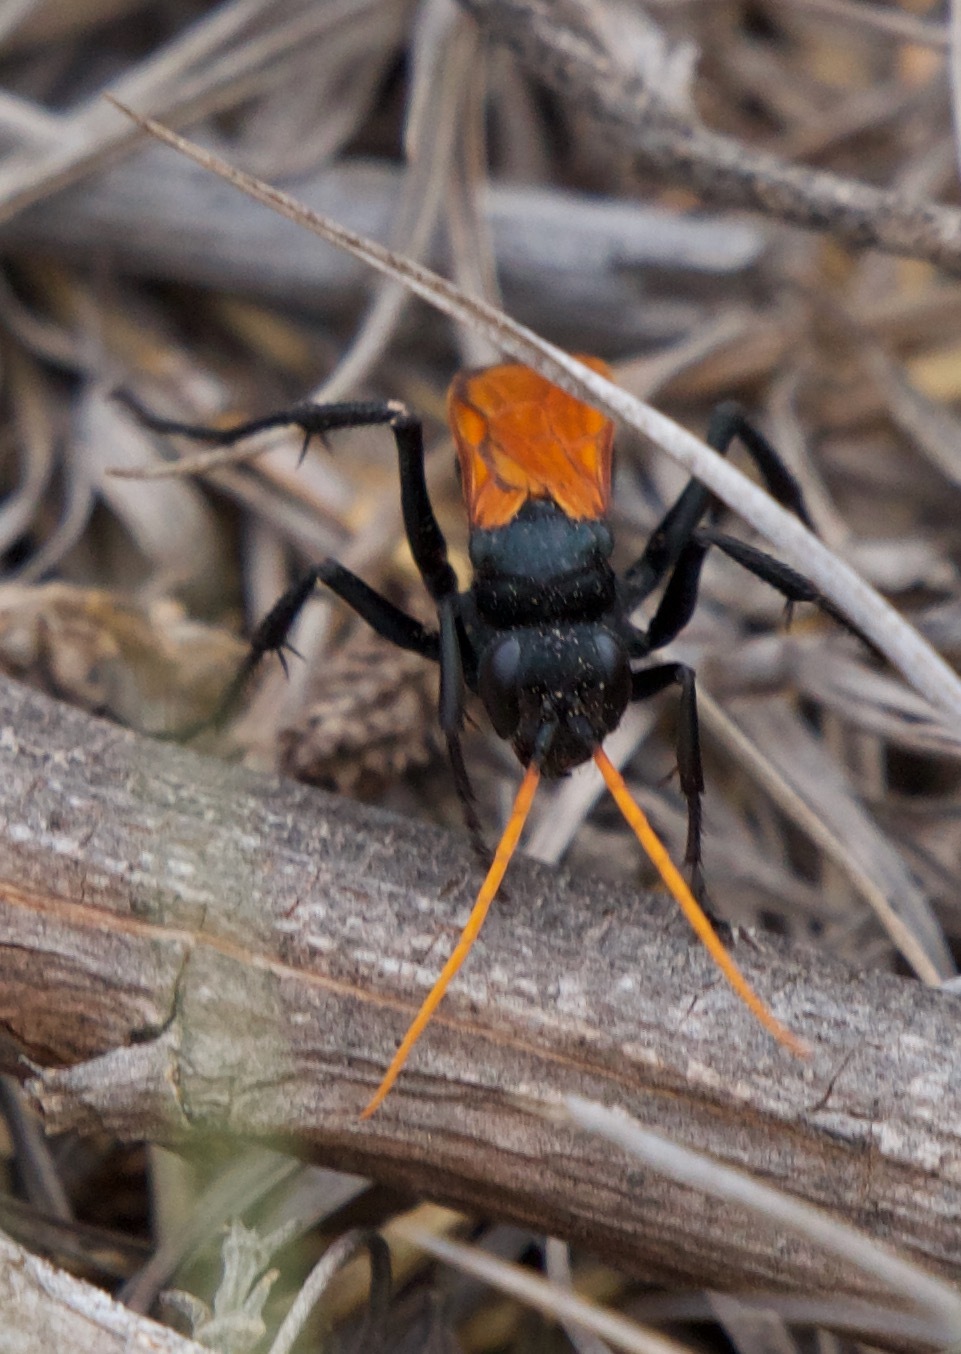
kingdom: Animalia
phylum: Arthropoda
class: Insecta
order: Hymenoptera
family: Pompilidae
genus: Entypus
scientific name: Entypus unifasciatus
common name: Eastern tawny-horned spider wasp
